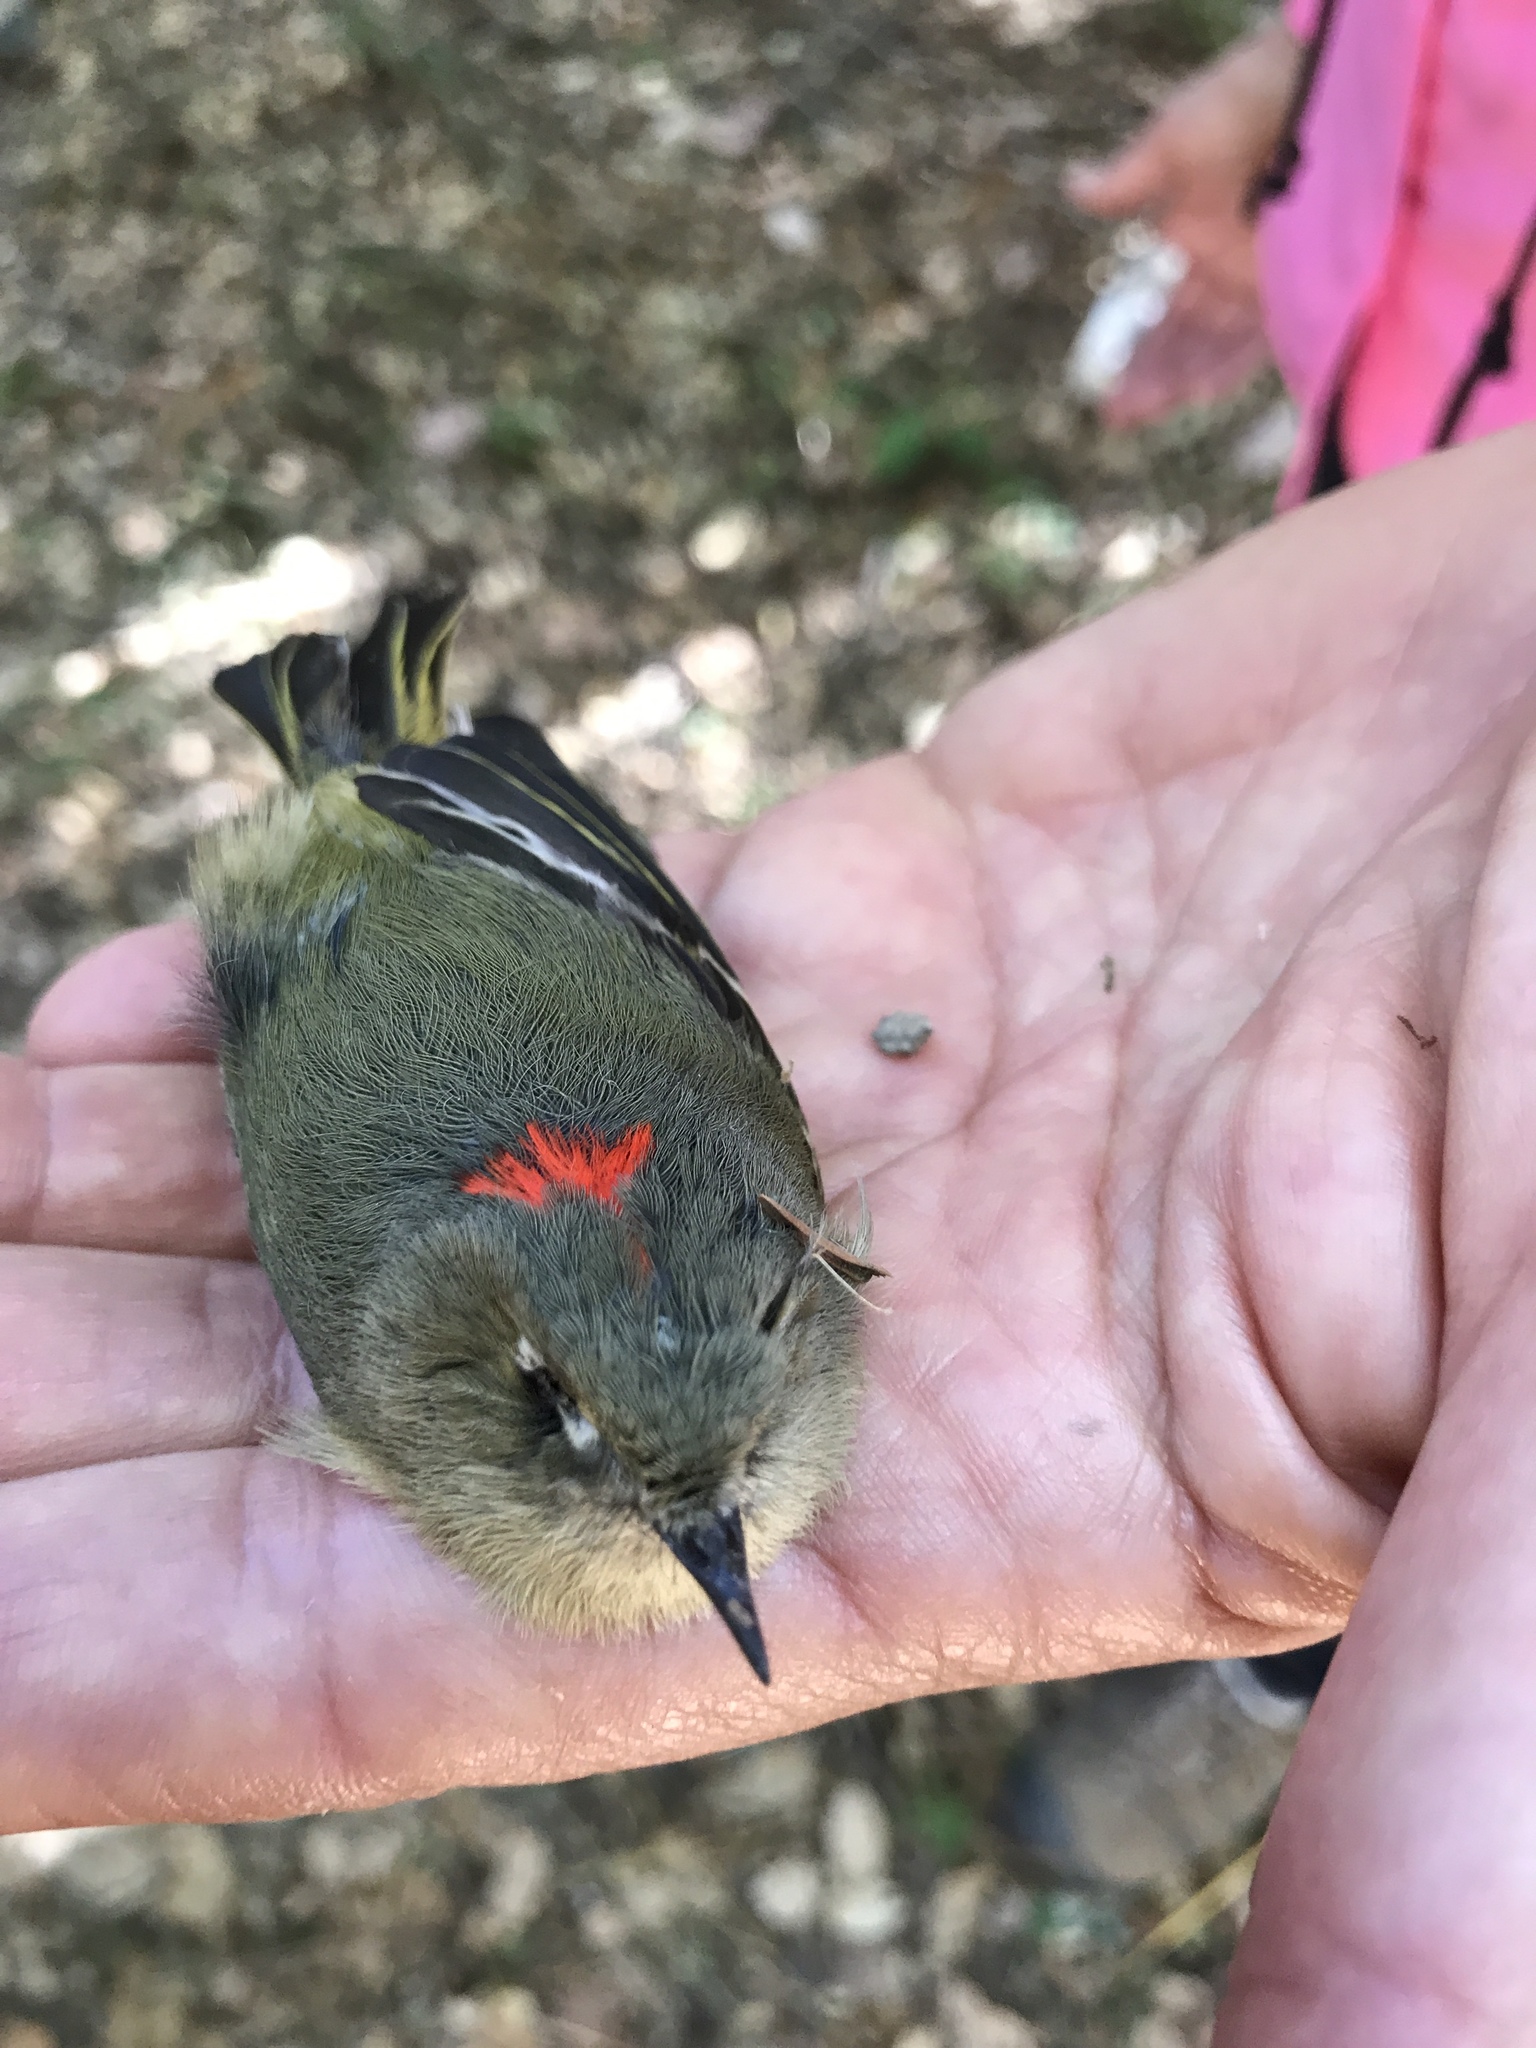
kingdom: Animalia
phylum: Chordata
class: Aves
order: Passeriformes
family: Regulidae
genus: Regulus
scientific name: Regulus calendula
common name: Ruby-crowned kinglet
